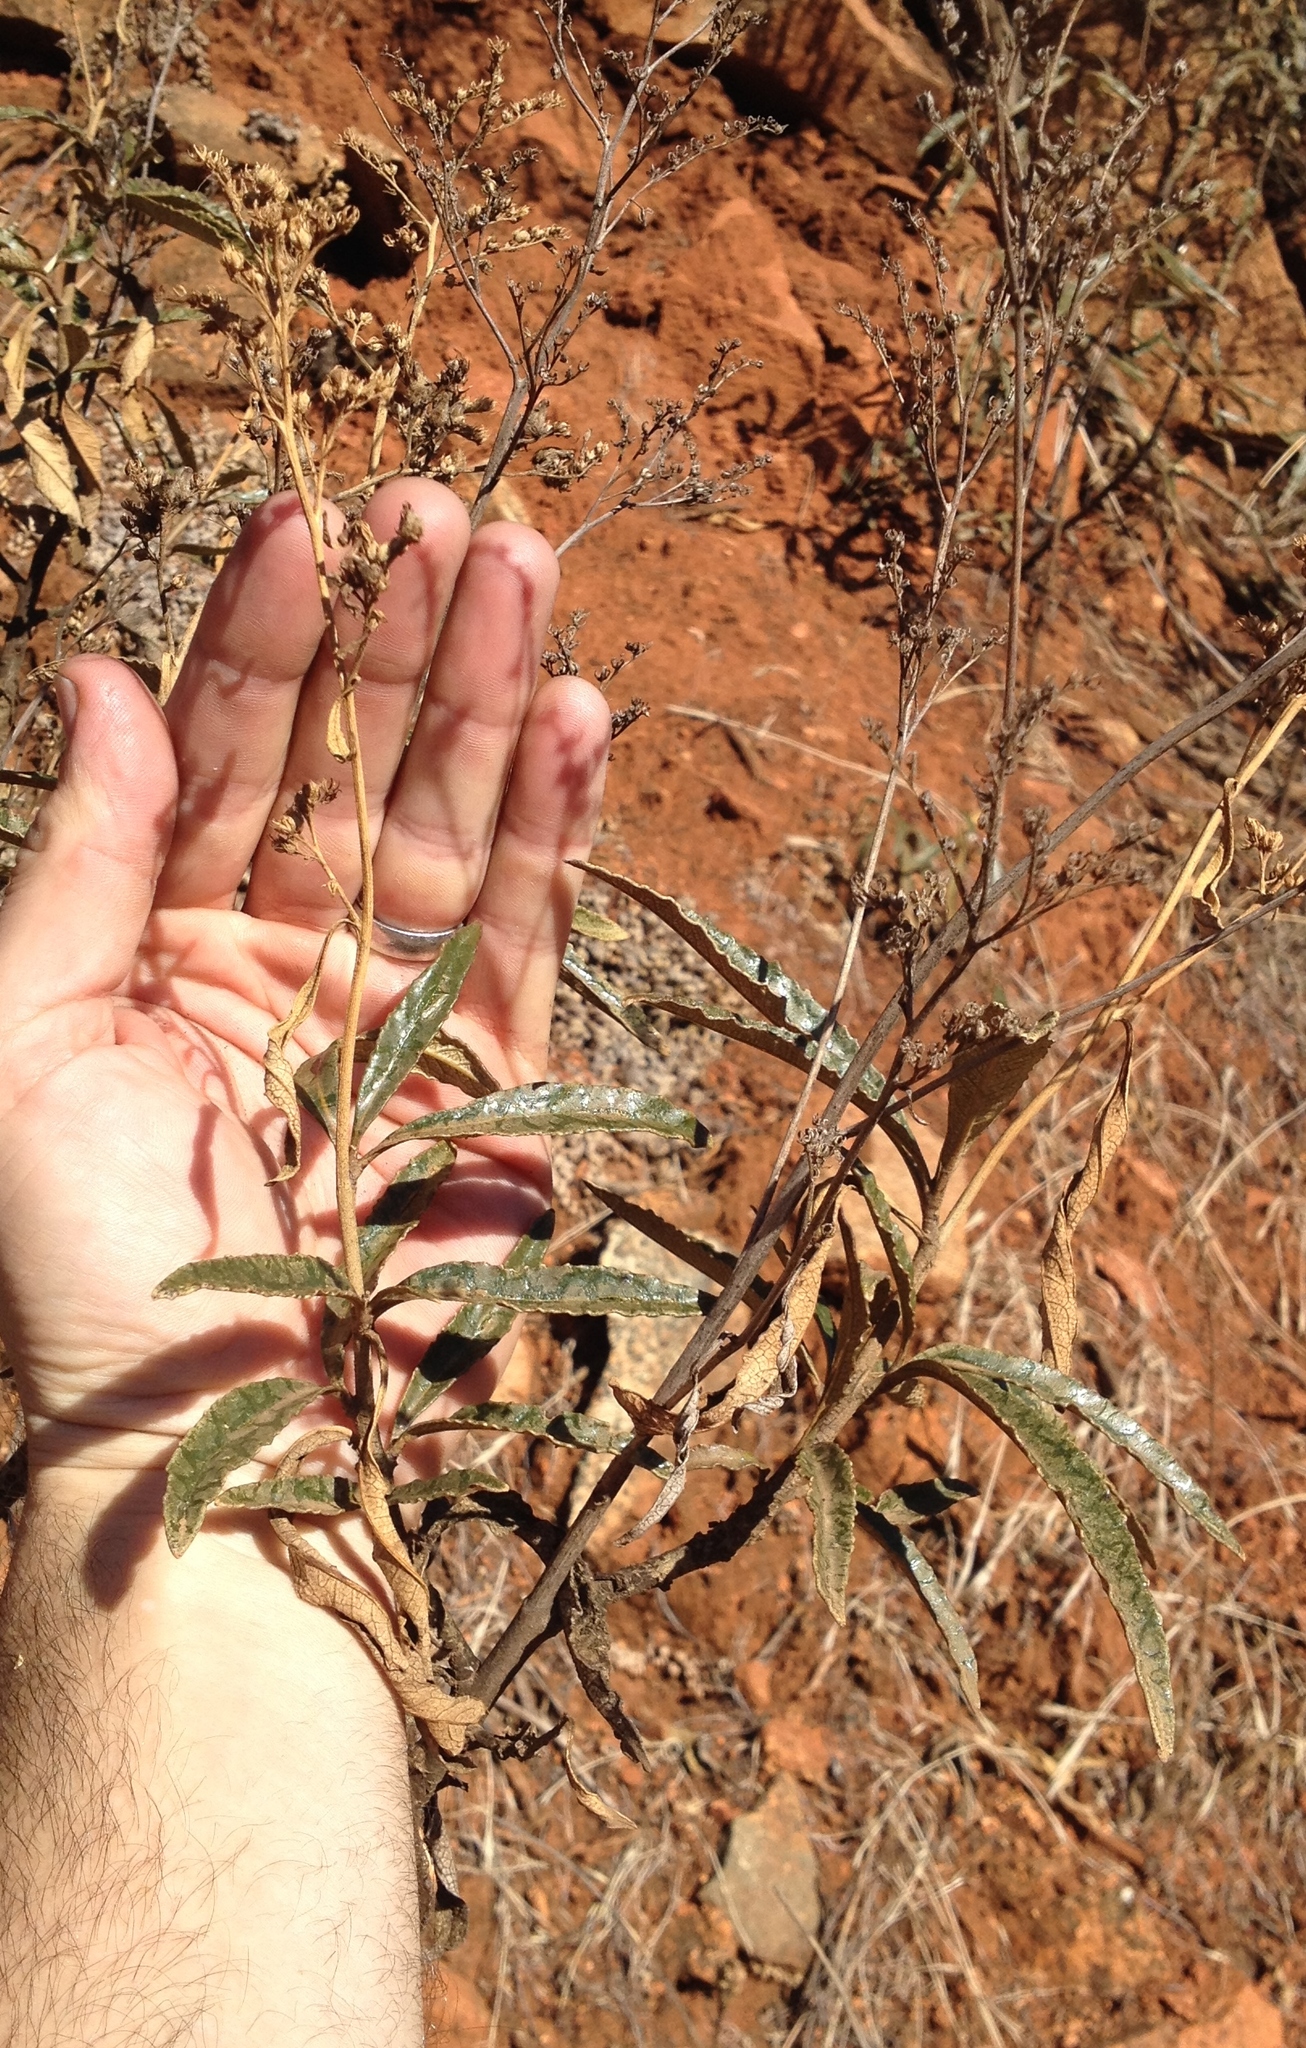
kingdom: Plantae
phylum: Tracheophyta
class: Magnoliopsida
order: Boraginales
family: Namaceae
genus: Eriodictyon
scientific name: Eriodictyon californicum
